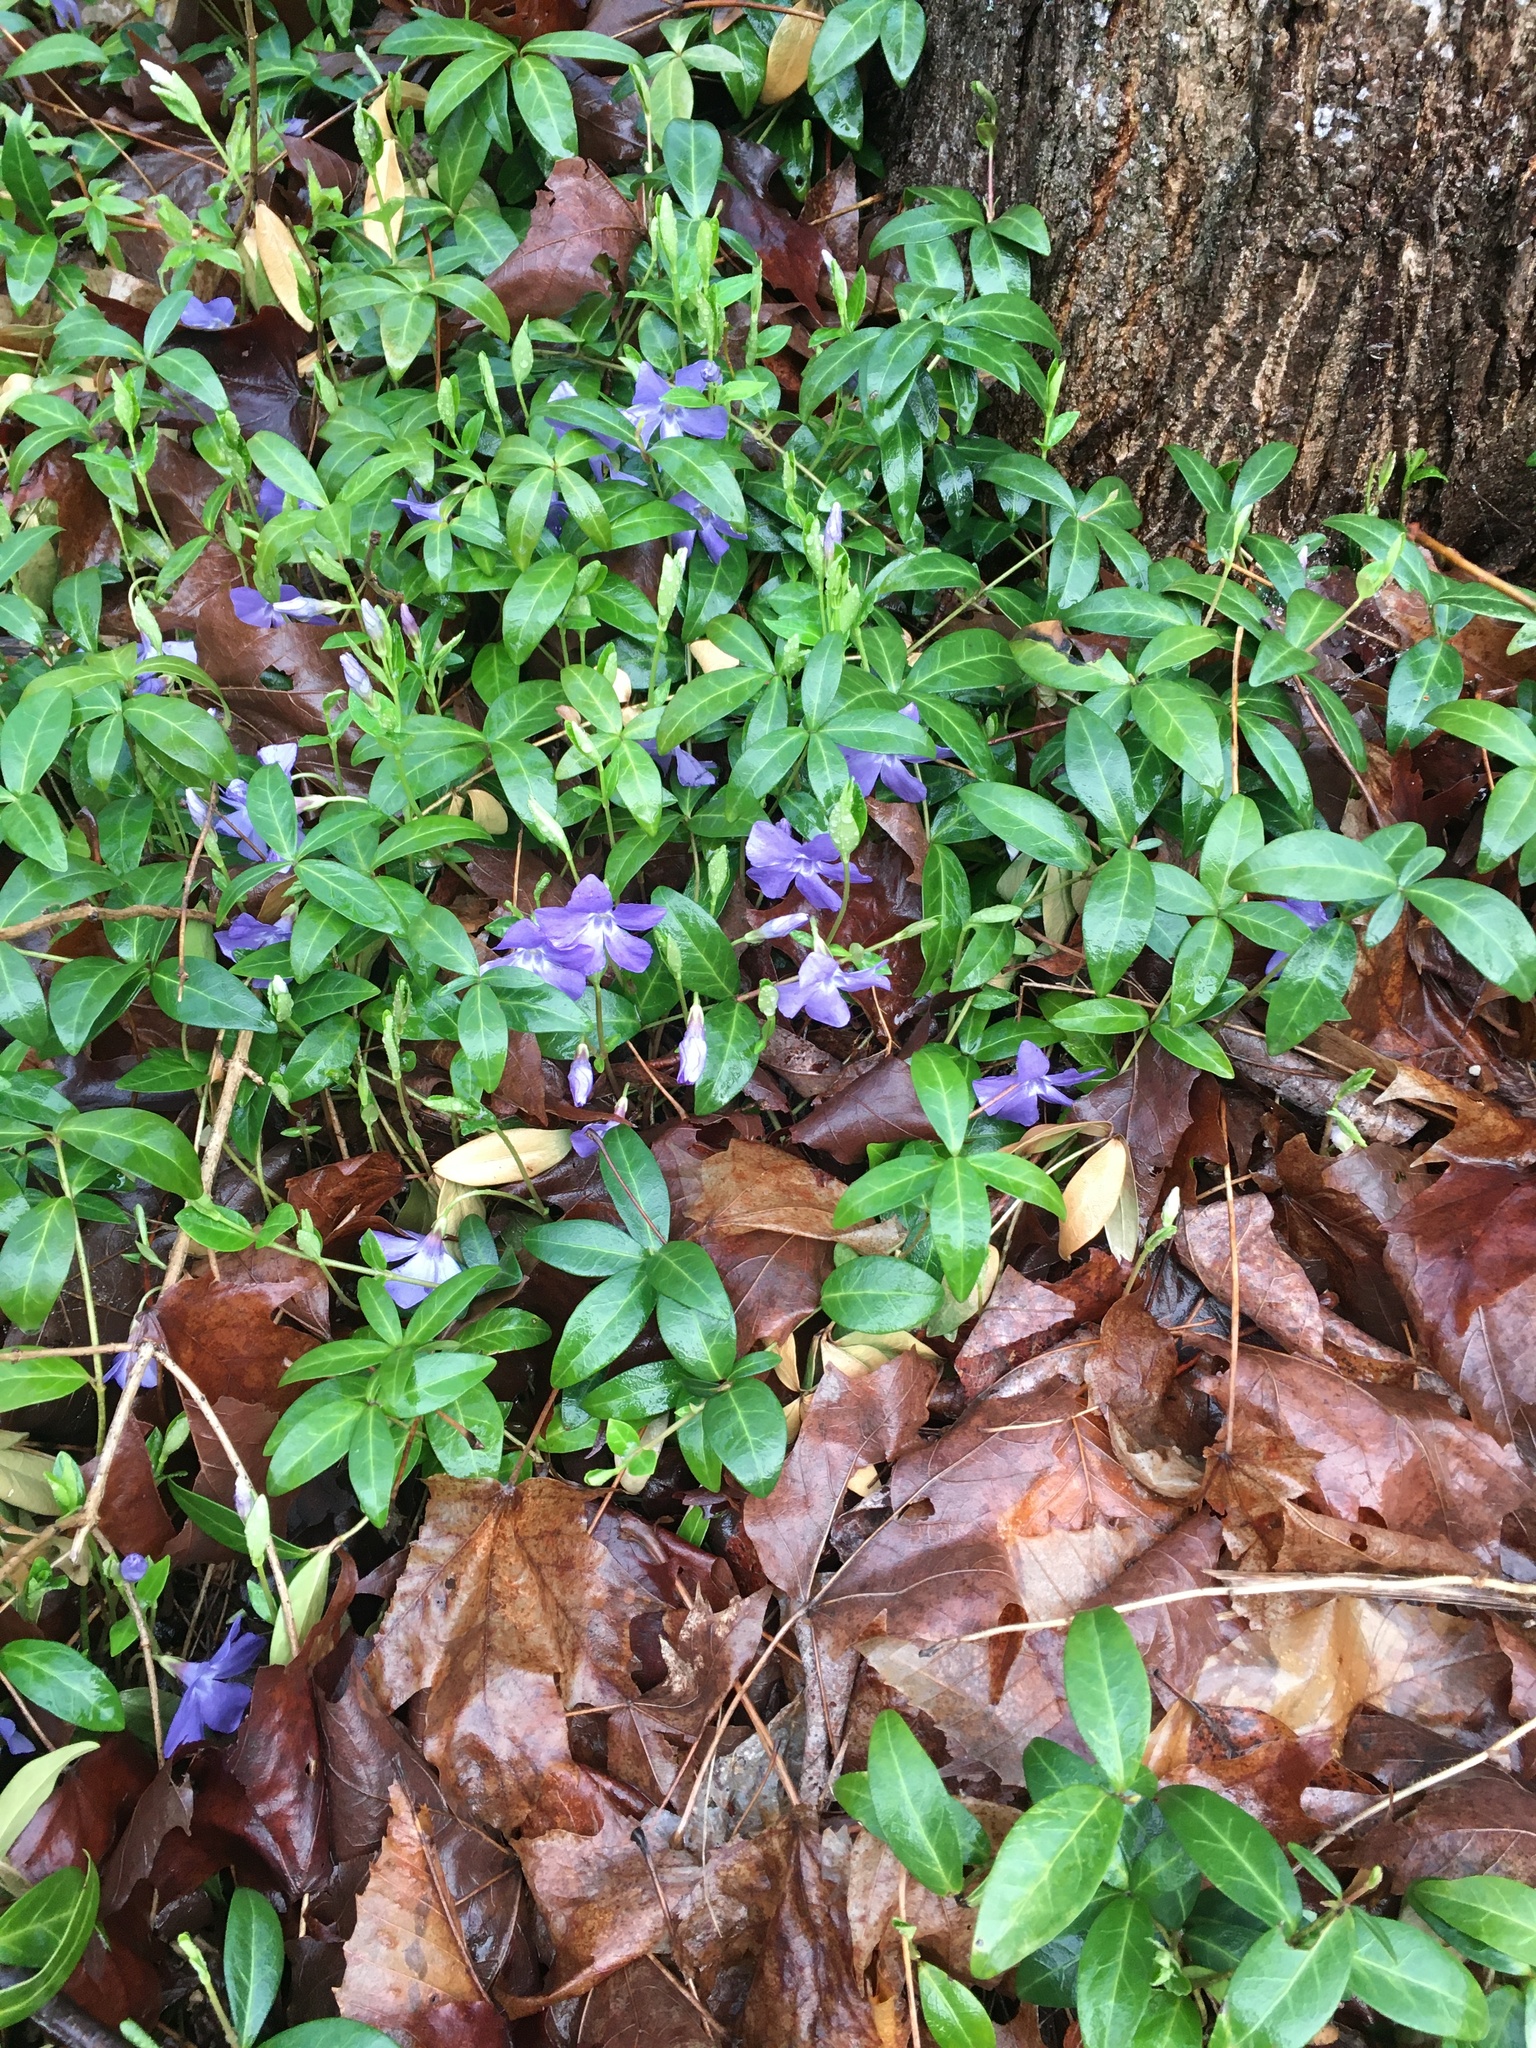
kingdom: Plantae
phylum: Tracheophyta
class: Magnoliopsida
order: Gentianales
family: Apocynaceae
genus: Vinca
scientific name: Vinca minor
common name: Lesser periwinkle
